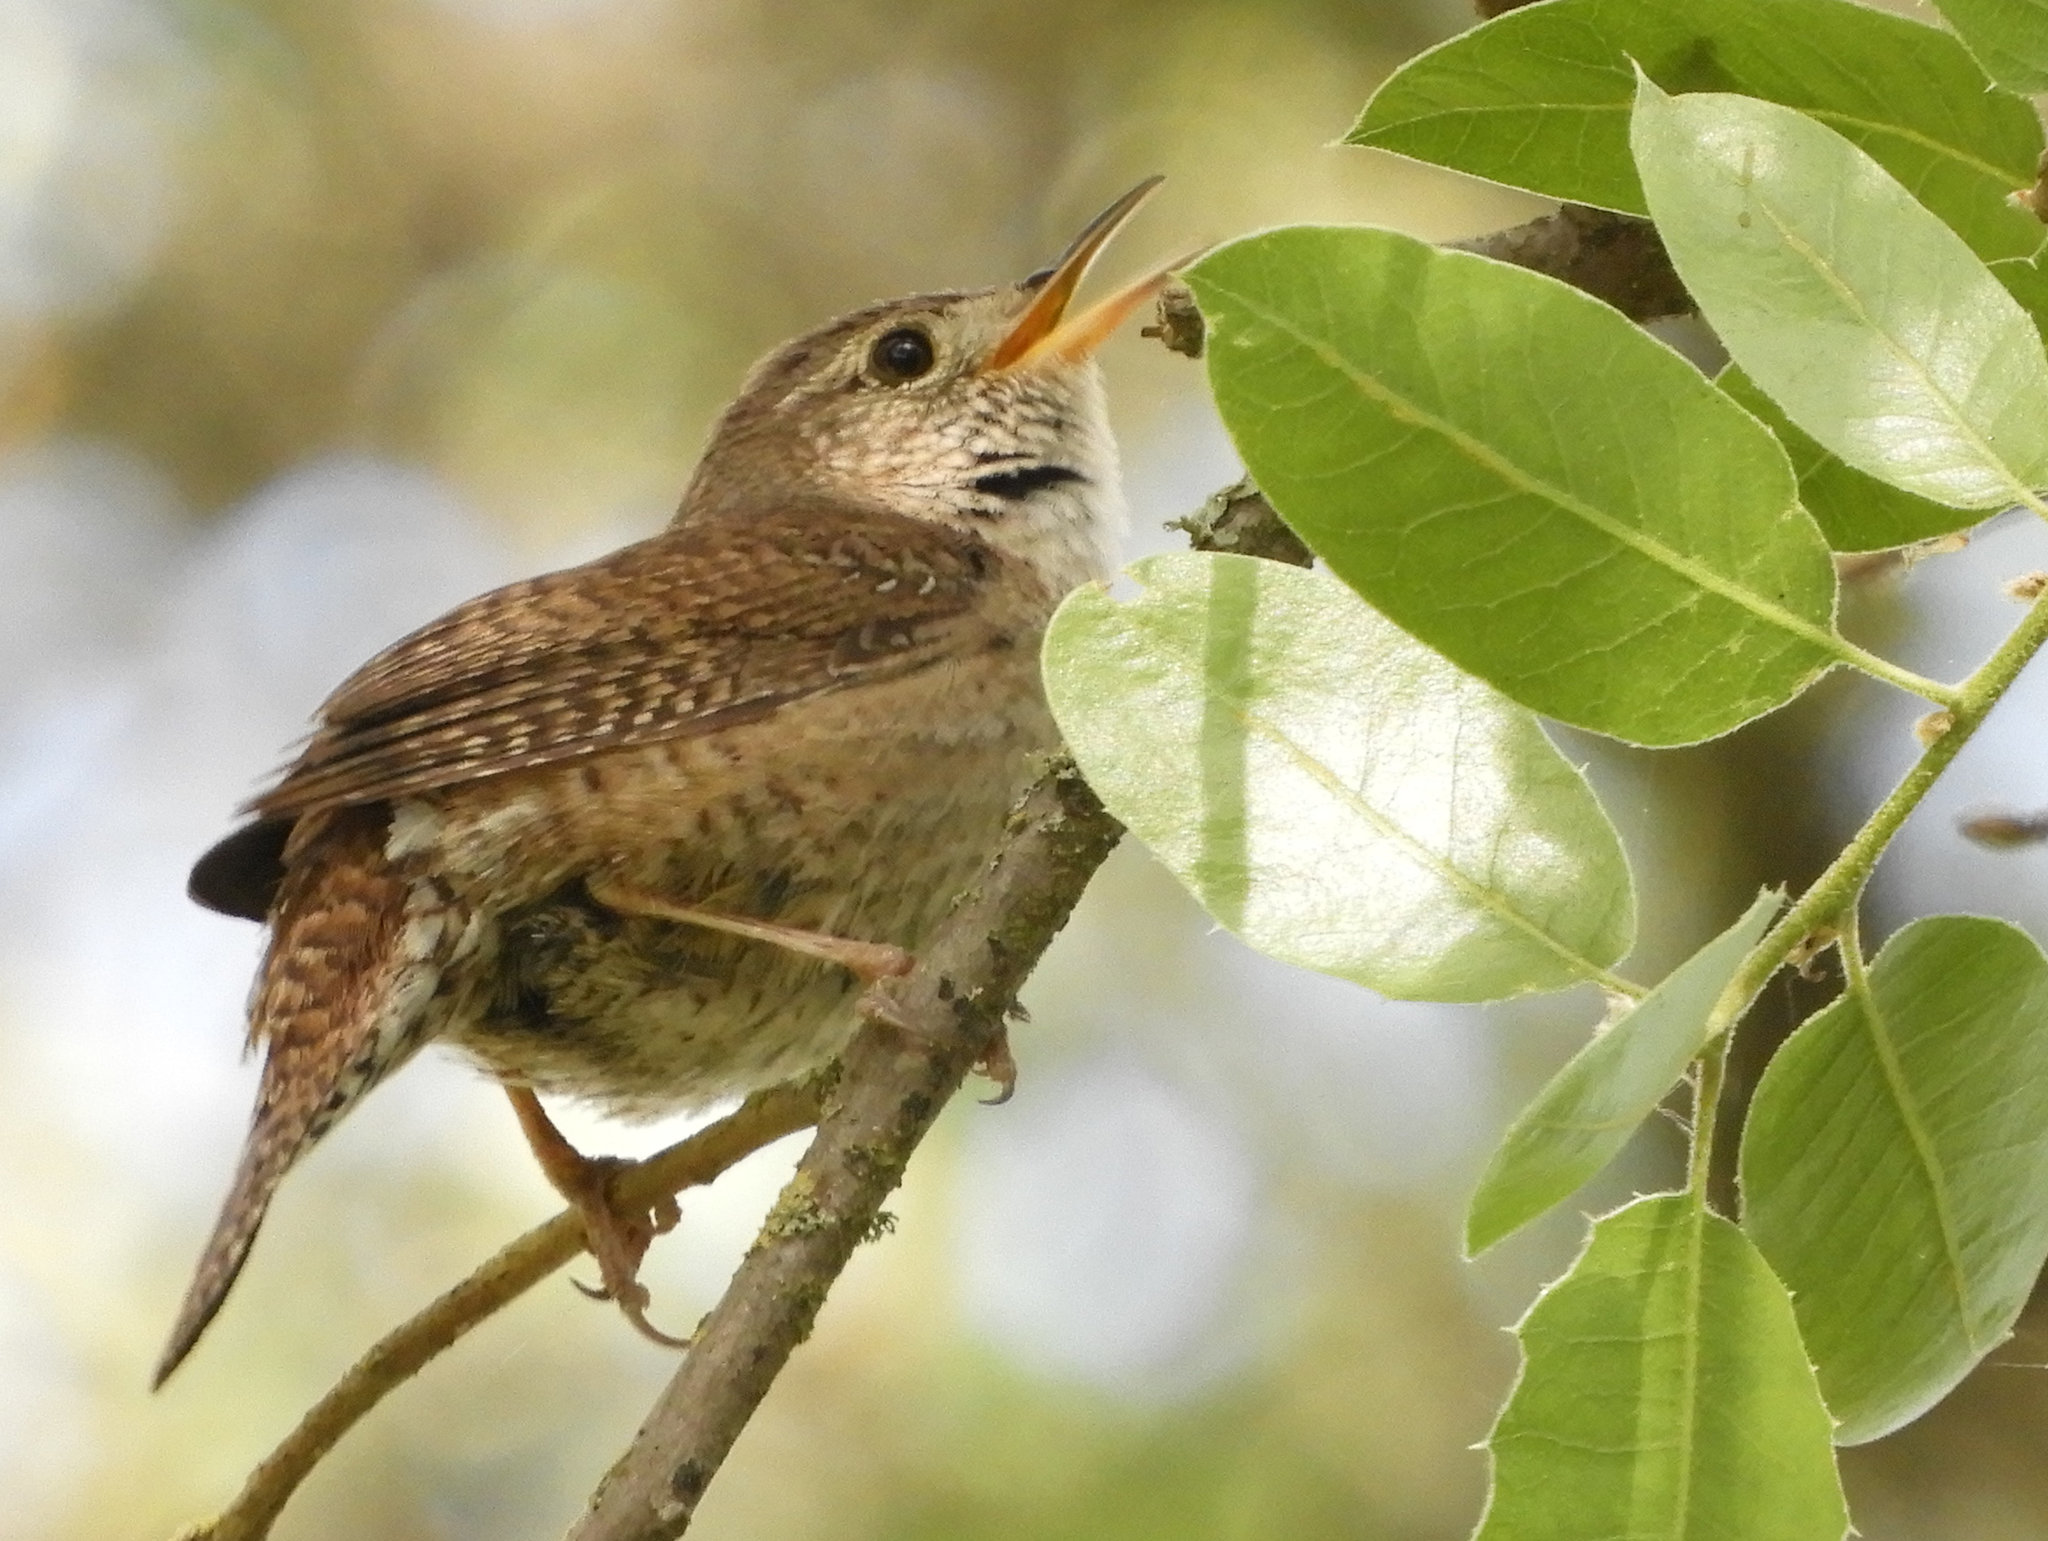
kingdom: Animalia
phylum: Chordata
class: Aves
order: Passeriformes
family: Troglodytidae
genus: Troglodytes
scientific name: Troglodytes aedon
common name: House wren
